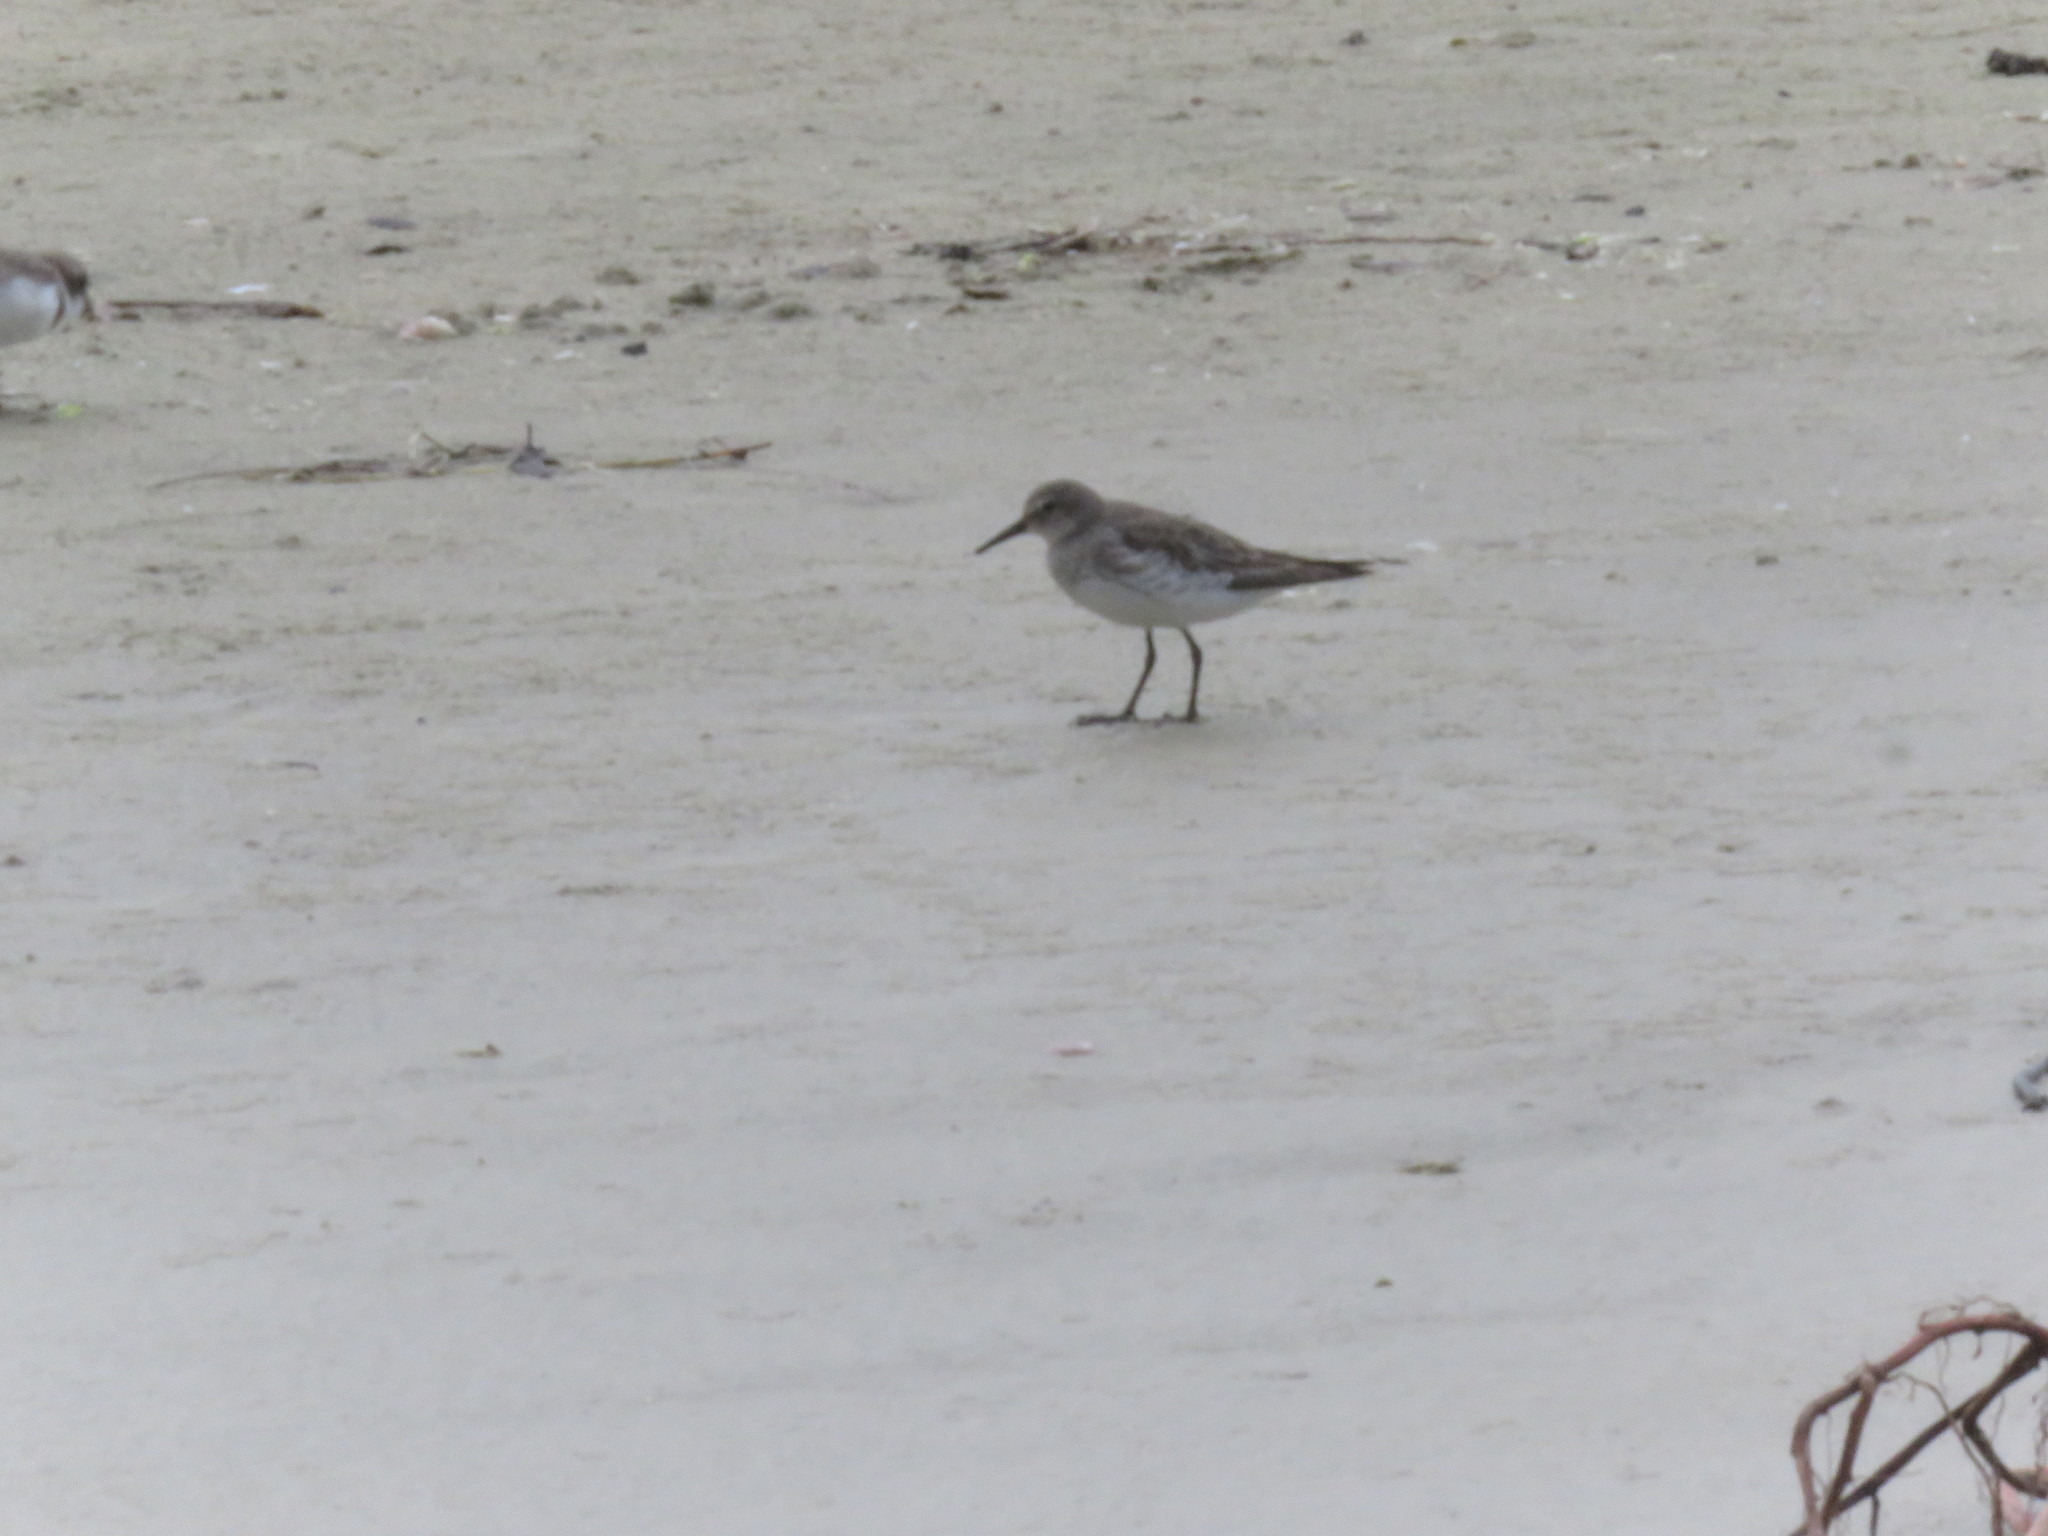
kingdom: Animalia
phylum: Chordata
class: Aves
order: Charadriiformes
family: Scolopacidae
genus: Calidris
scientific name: Calidris fuscicollis
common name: White-rumped sandpiper
